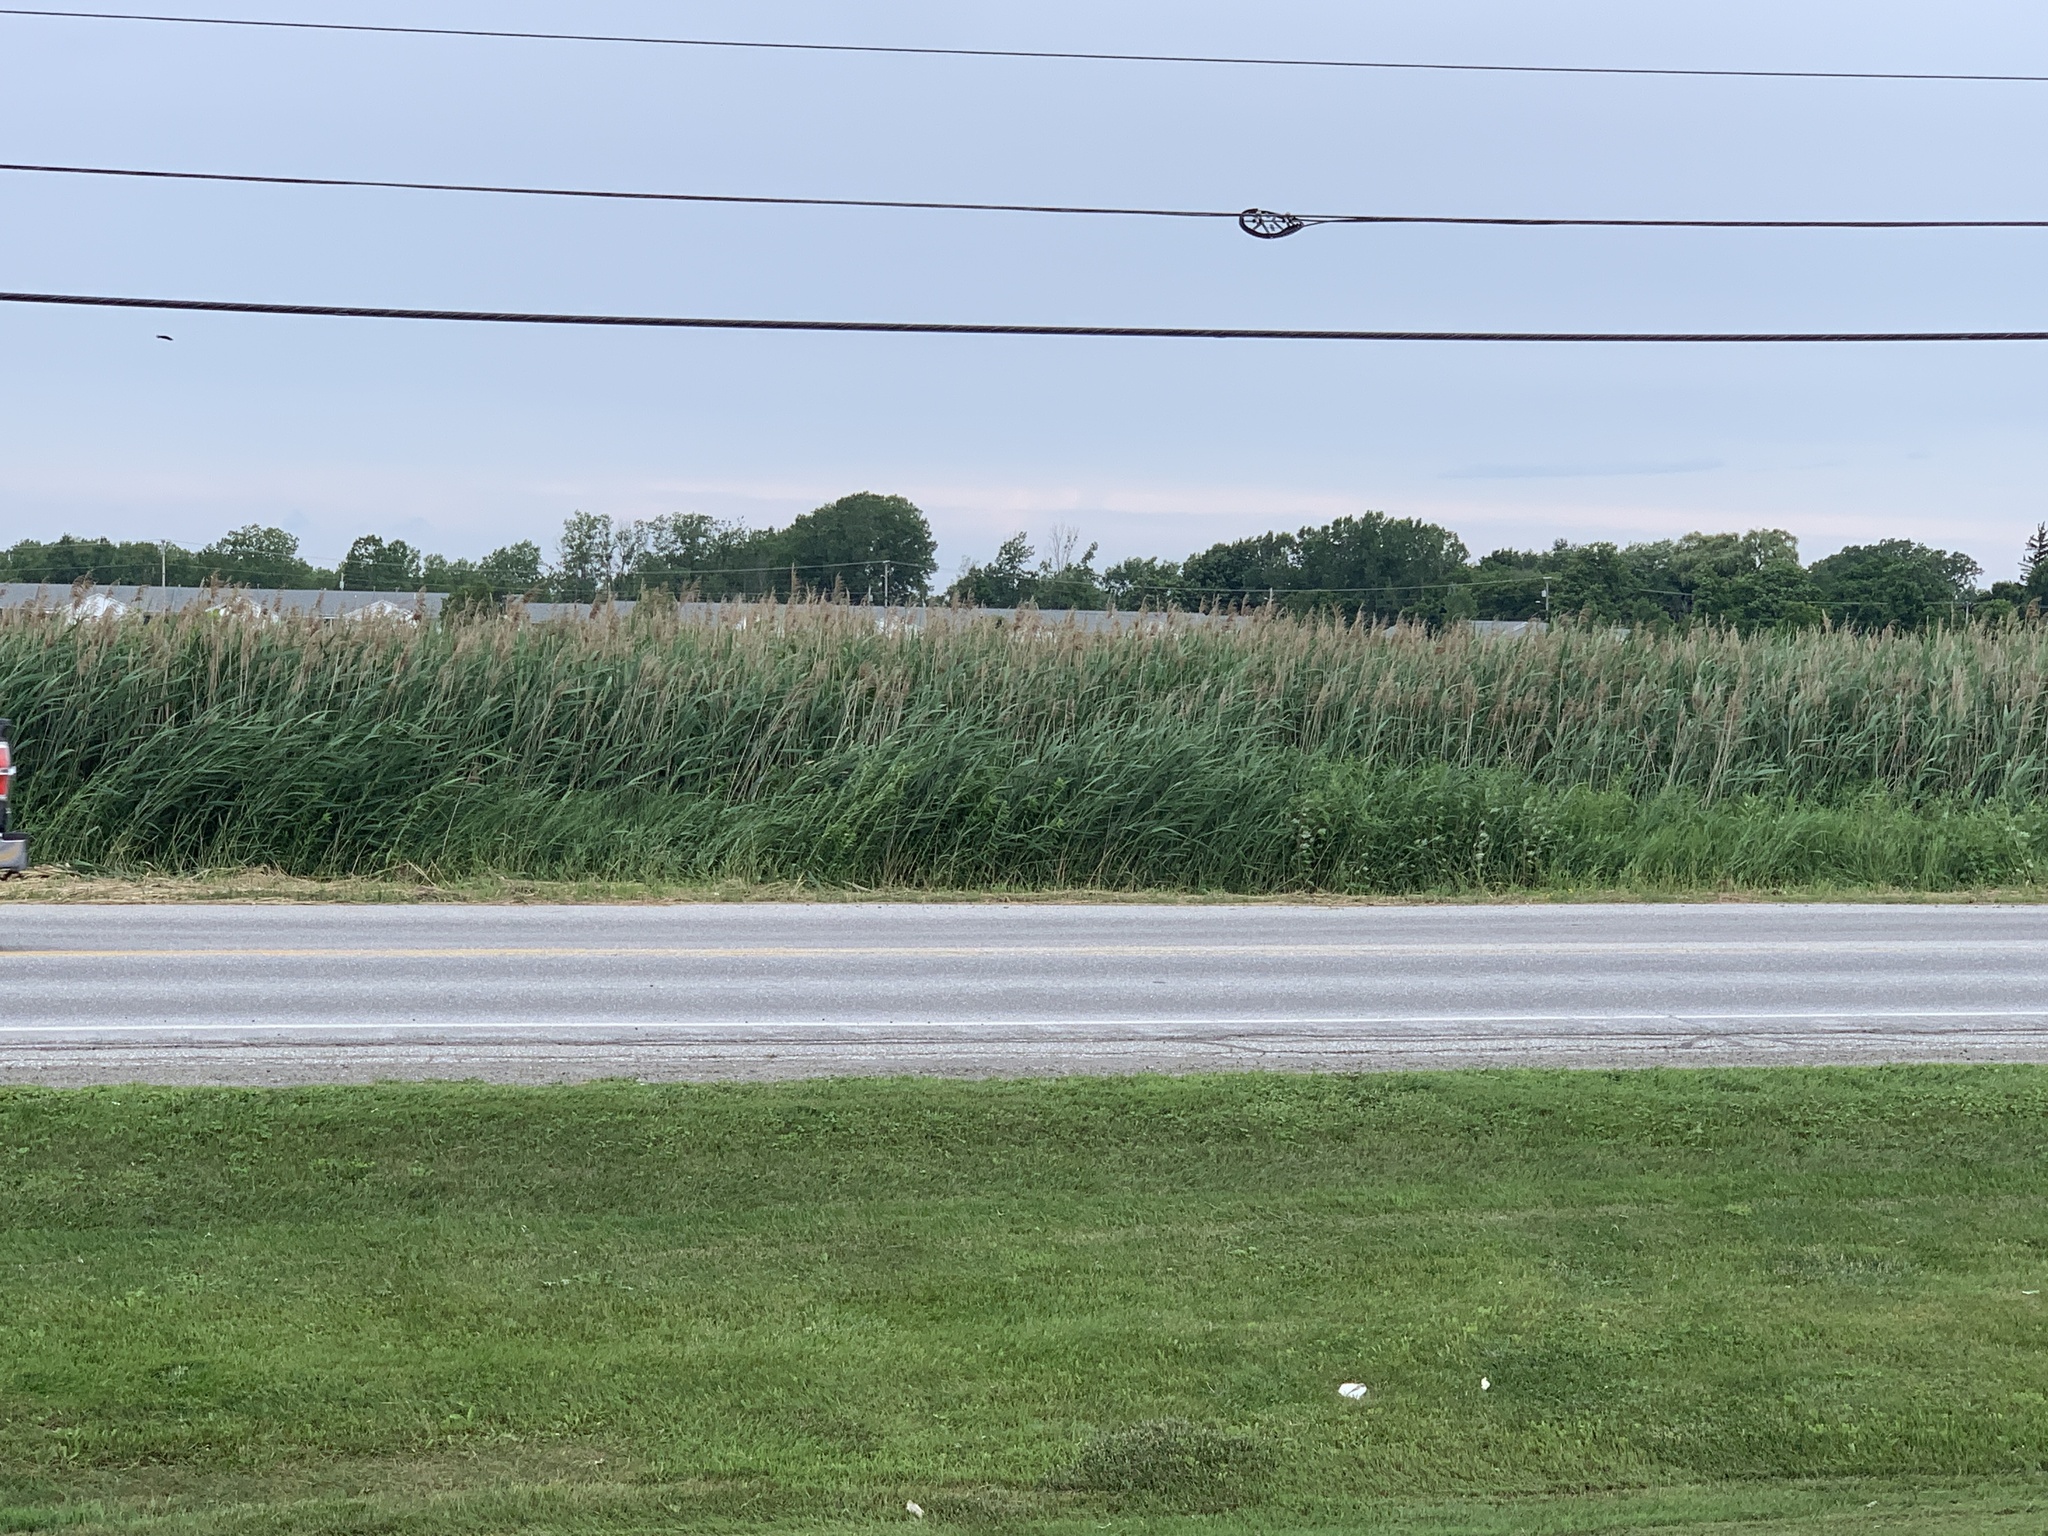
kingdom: Plantae
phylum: Tracheophyta
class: Liliopsida
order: Poales
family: Poaceae
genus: Phragmites
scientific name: Phragmites australis
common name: Common reed
